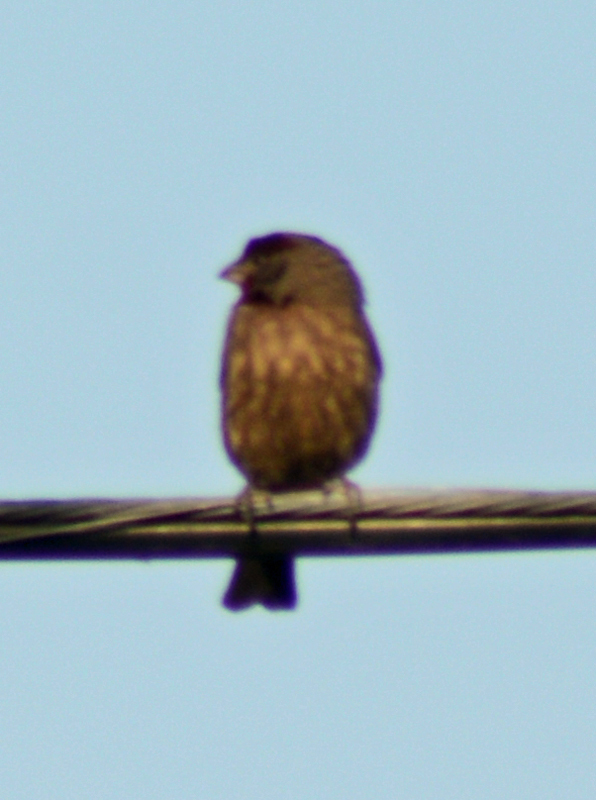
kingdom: Animalia
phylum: Chordata
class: Aves
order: Passeriformes
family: Fringillidae
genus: Haemorhous
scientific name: Haemorhous mexicanus
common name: House finch
